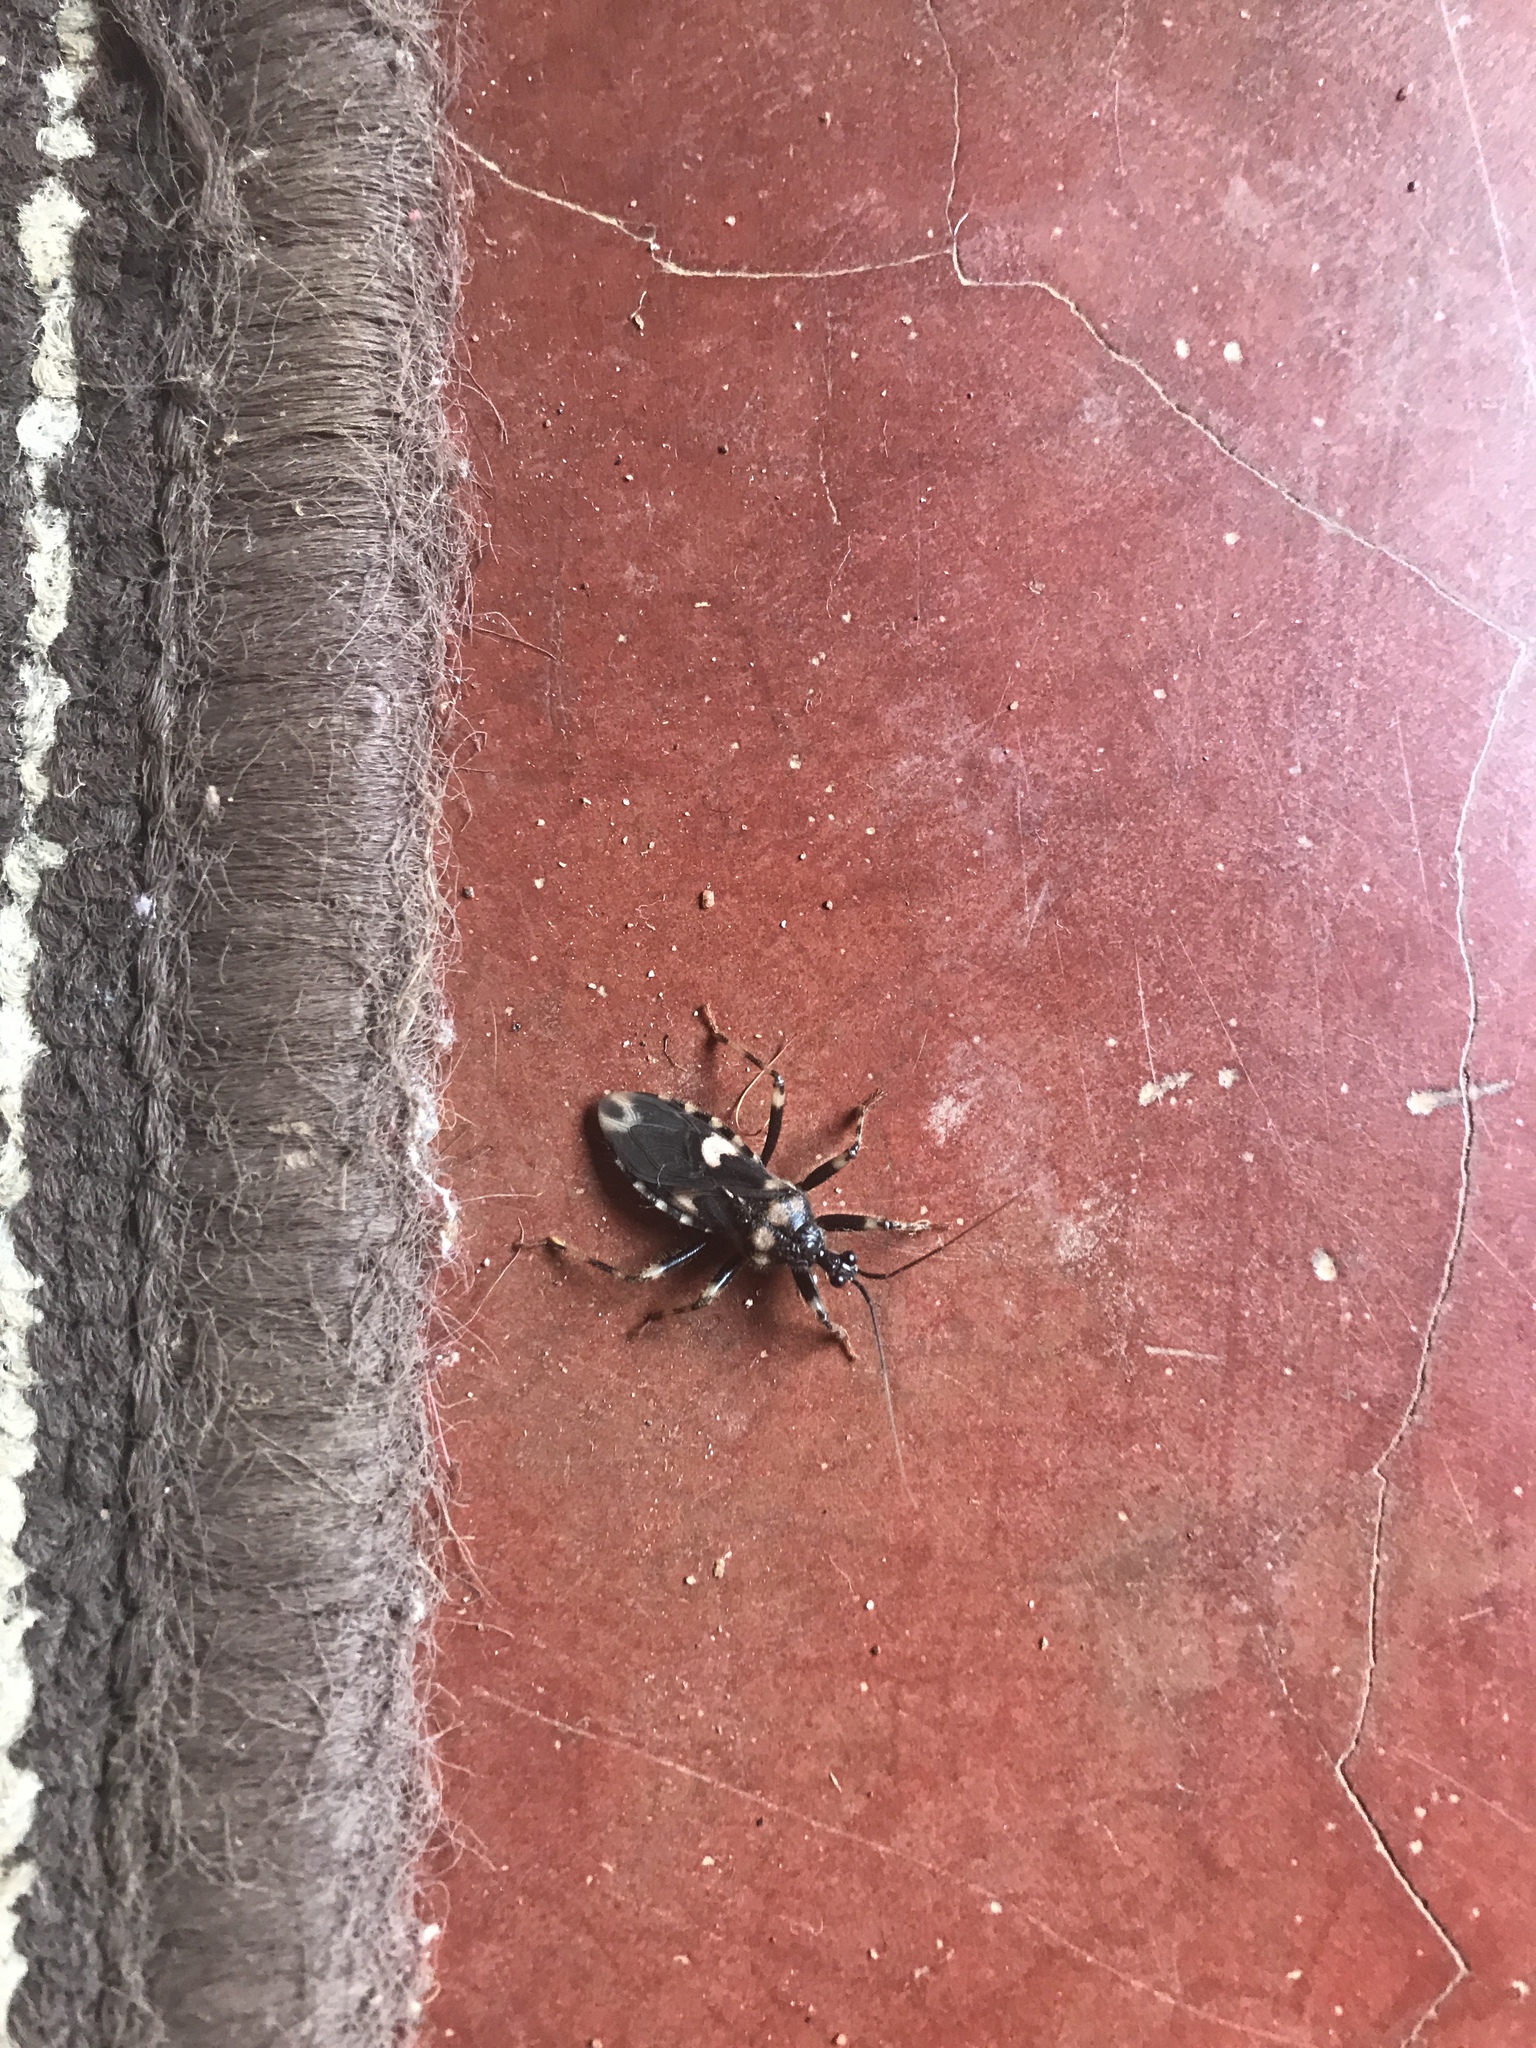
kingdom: Animalia
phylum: Arthropoda
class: Insecta
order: Hemiptera
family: Reduviidae
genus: Acanthaspis
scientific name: Acanthaspis rama
